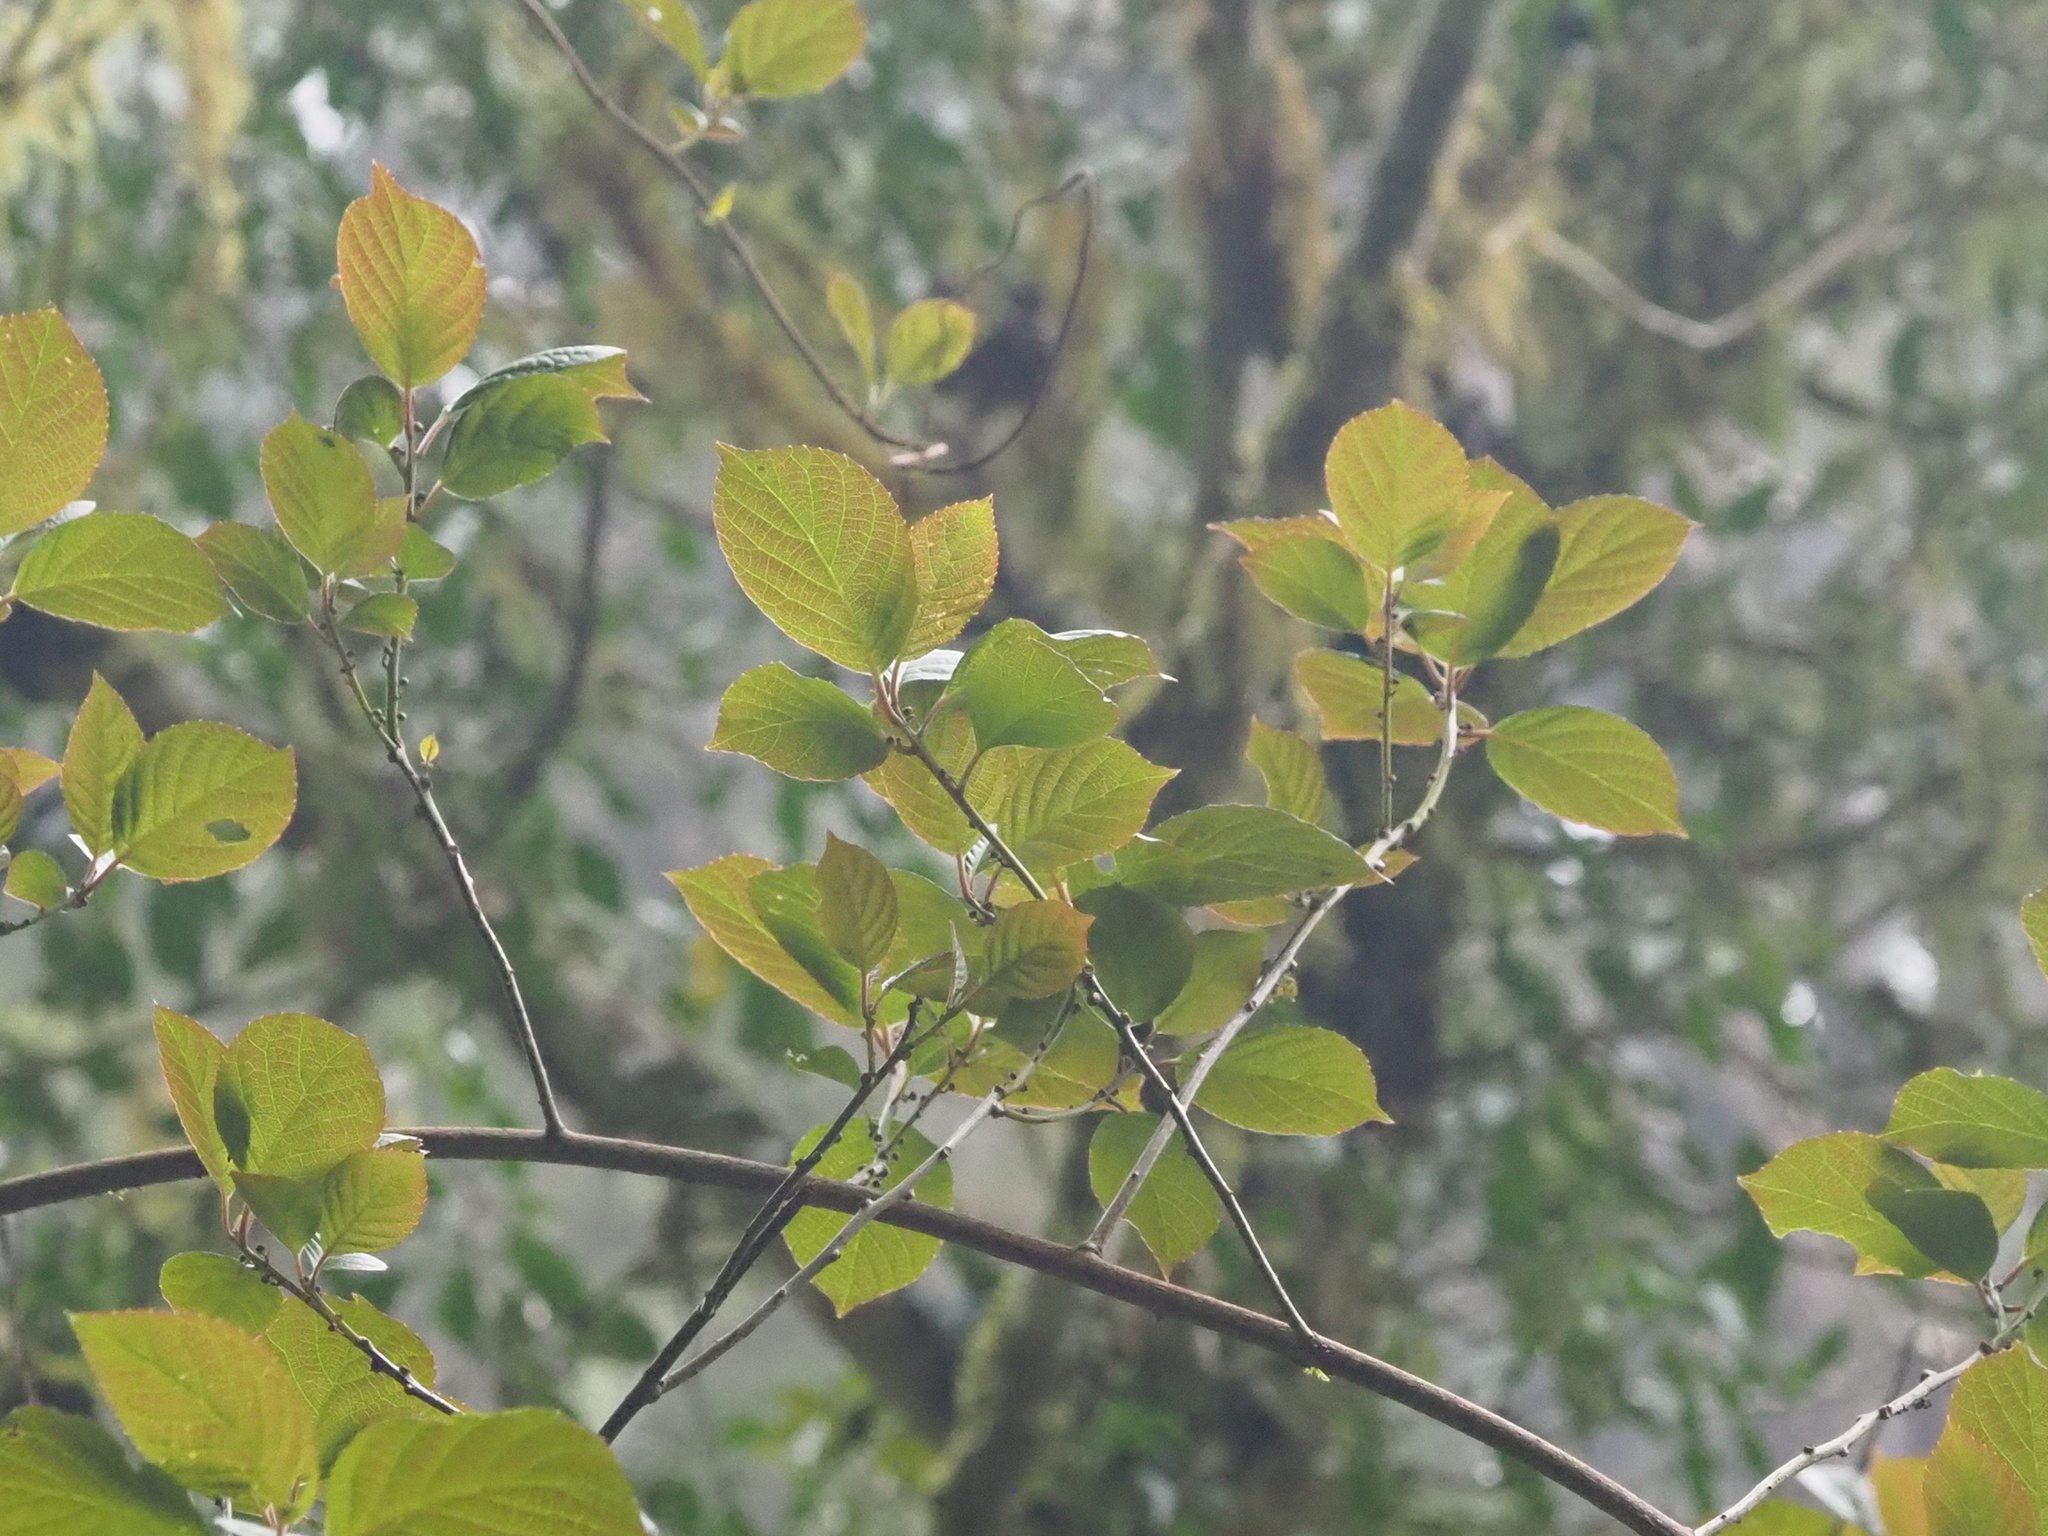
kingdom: Plantae
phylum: Tracheophyta
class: Magnoliopsida
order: Ericales
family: Actinidiaceae
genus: Actinidia
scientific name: Actinidia rufa
